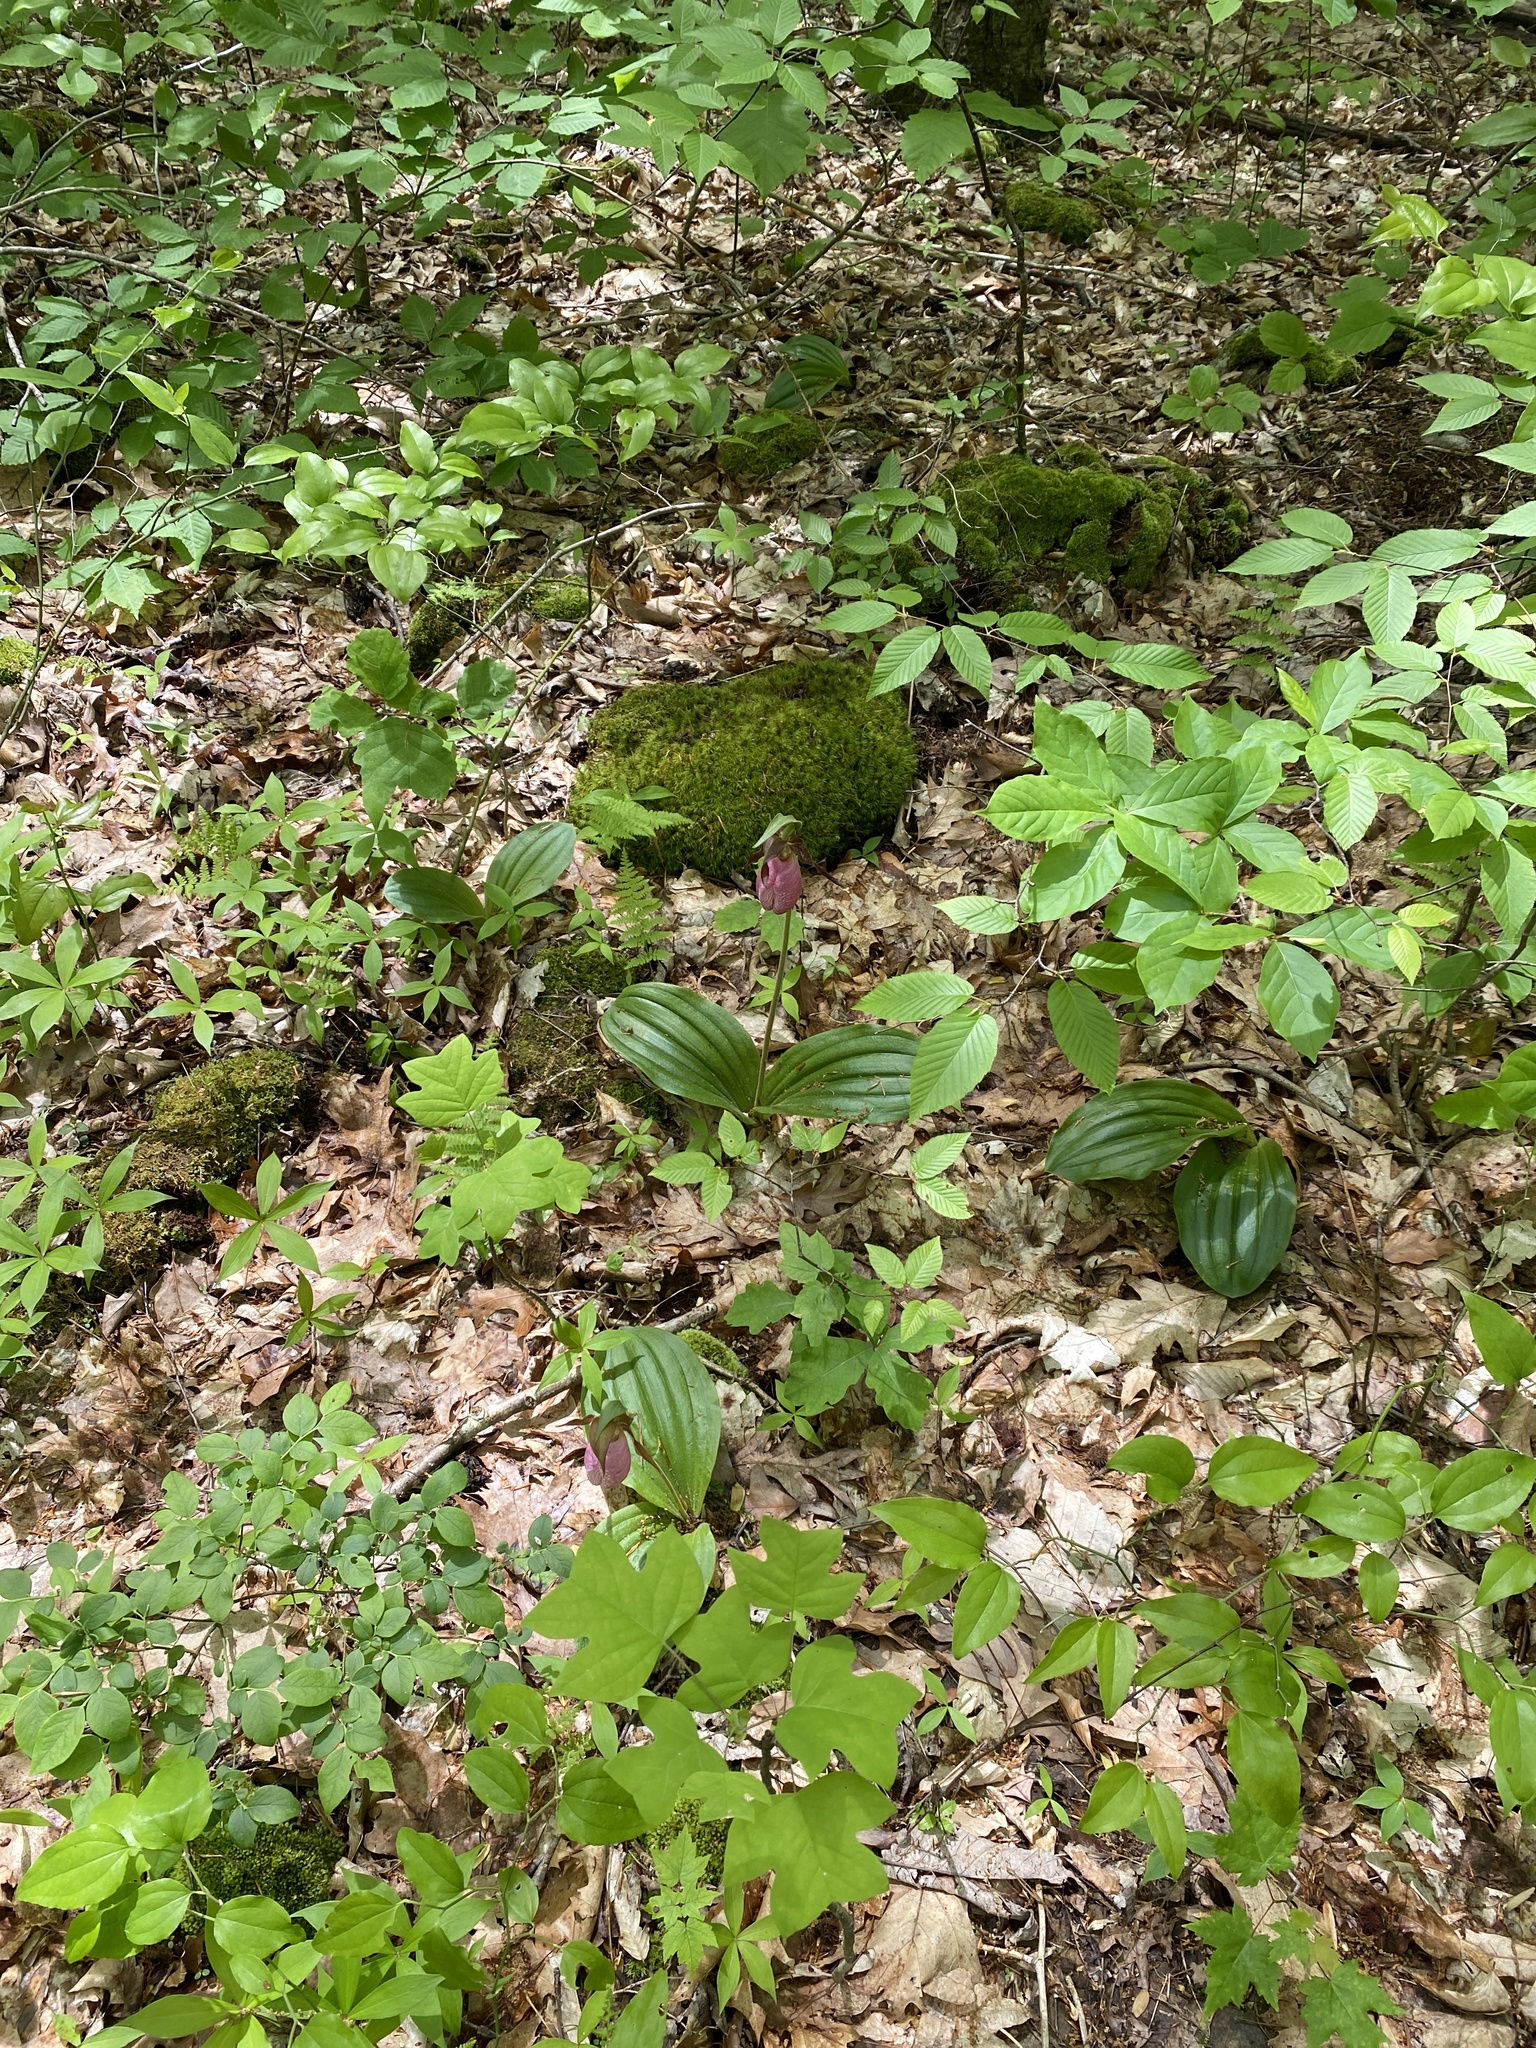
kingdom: Plantae
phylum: Tracheophyta
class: Liliopsida
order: Asparagales
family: Orchidaceae
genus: Cypripedium
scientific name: Cypripedium acaule
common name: Pink lady's-slipper
